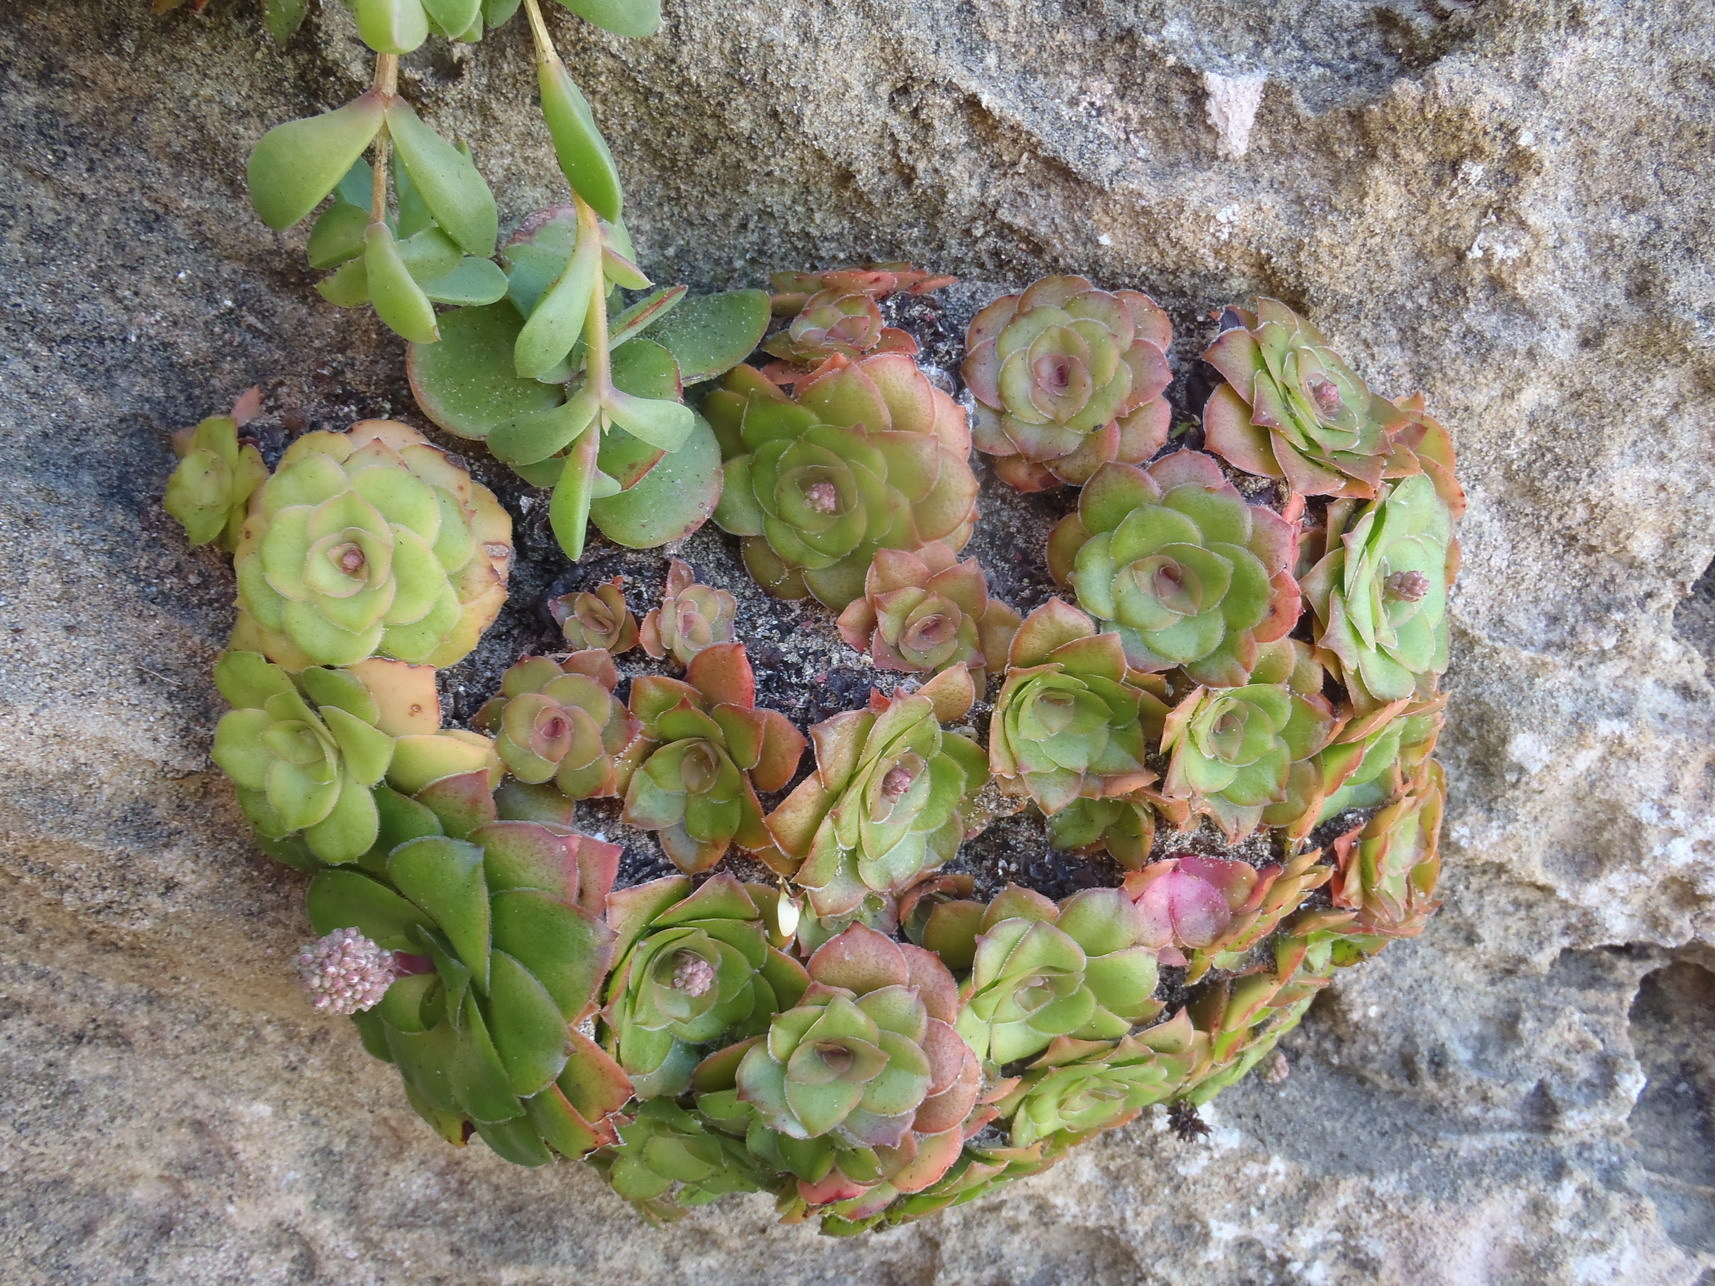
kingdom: Plantae
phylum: Tracheophyta
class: Magnoliopsida
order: Saxifragales
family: Crassulaceae
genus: Crassula
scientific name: Crassula orbicularis
